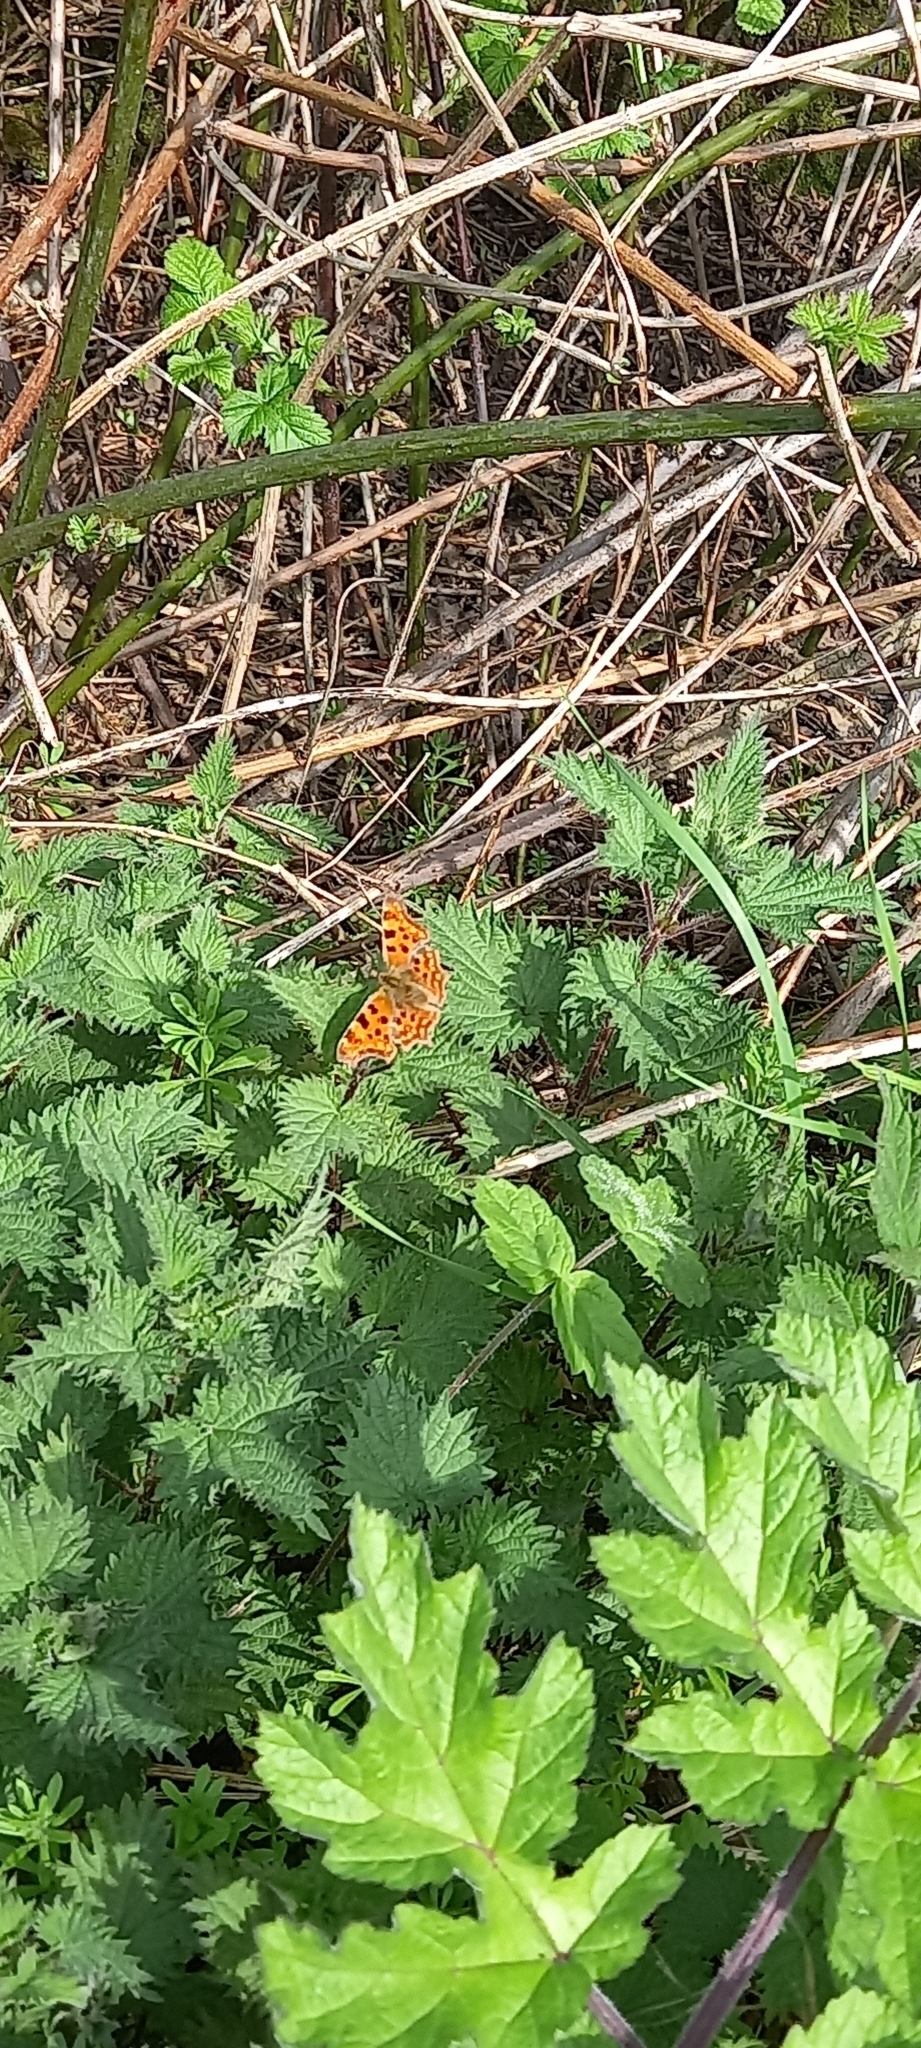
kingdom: Animalia
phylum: Arthropoda
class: Insecta
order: Lepidoptera
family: Nymphalidae
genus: Polygonia
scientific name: Polygonia c-album
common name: Comma
